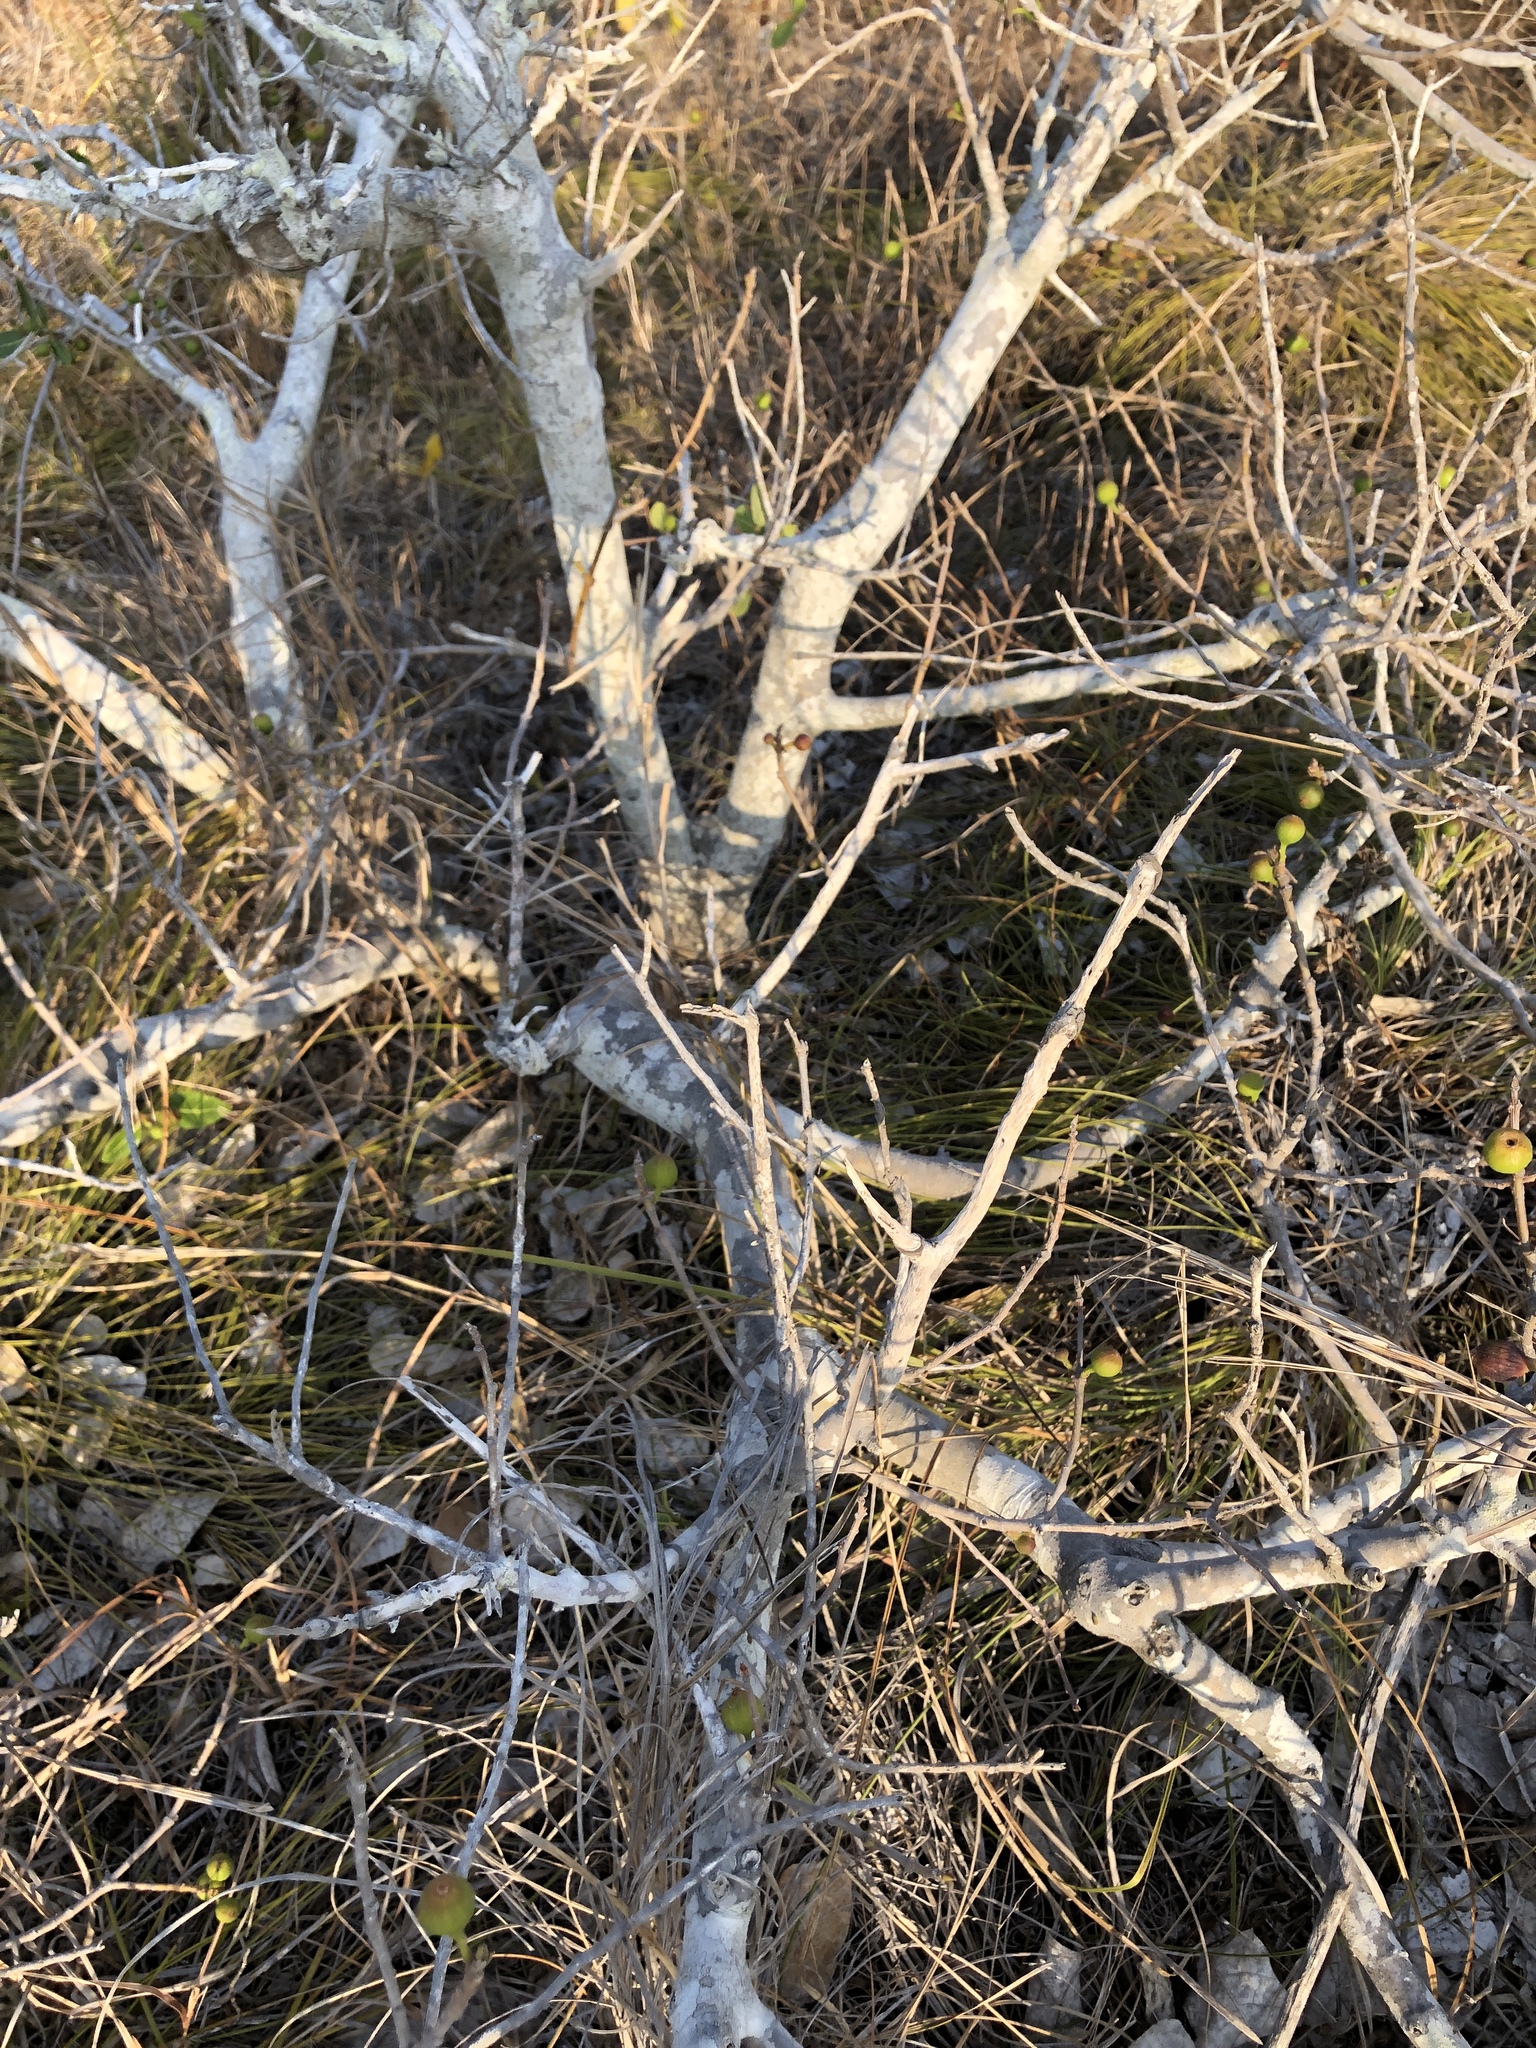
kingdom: Plantae
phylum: Tracheophyta
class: Magnoliopsida
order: Rosales
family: Moraceae
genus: Ficus
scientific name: Ficus opposita
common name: Figwood
